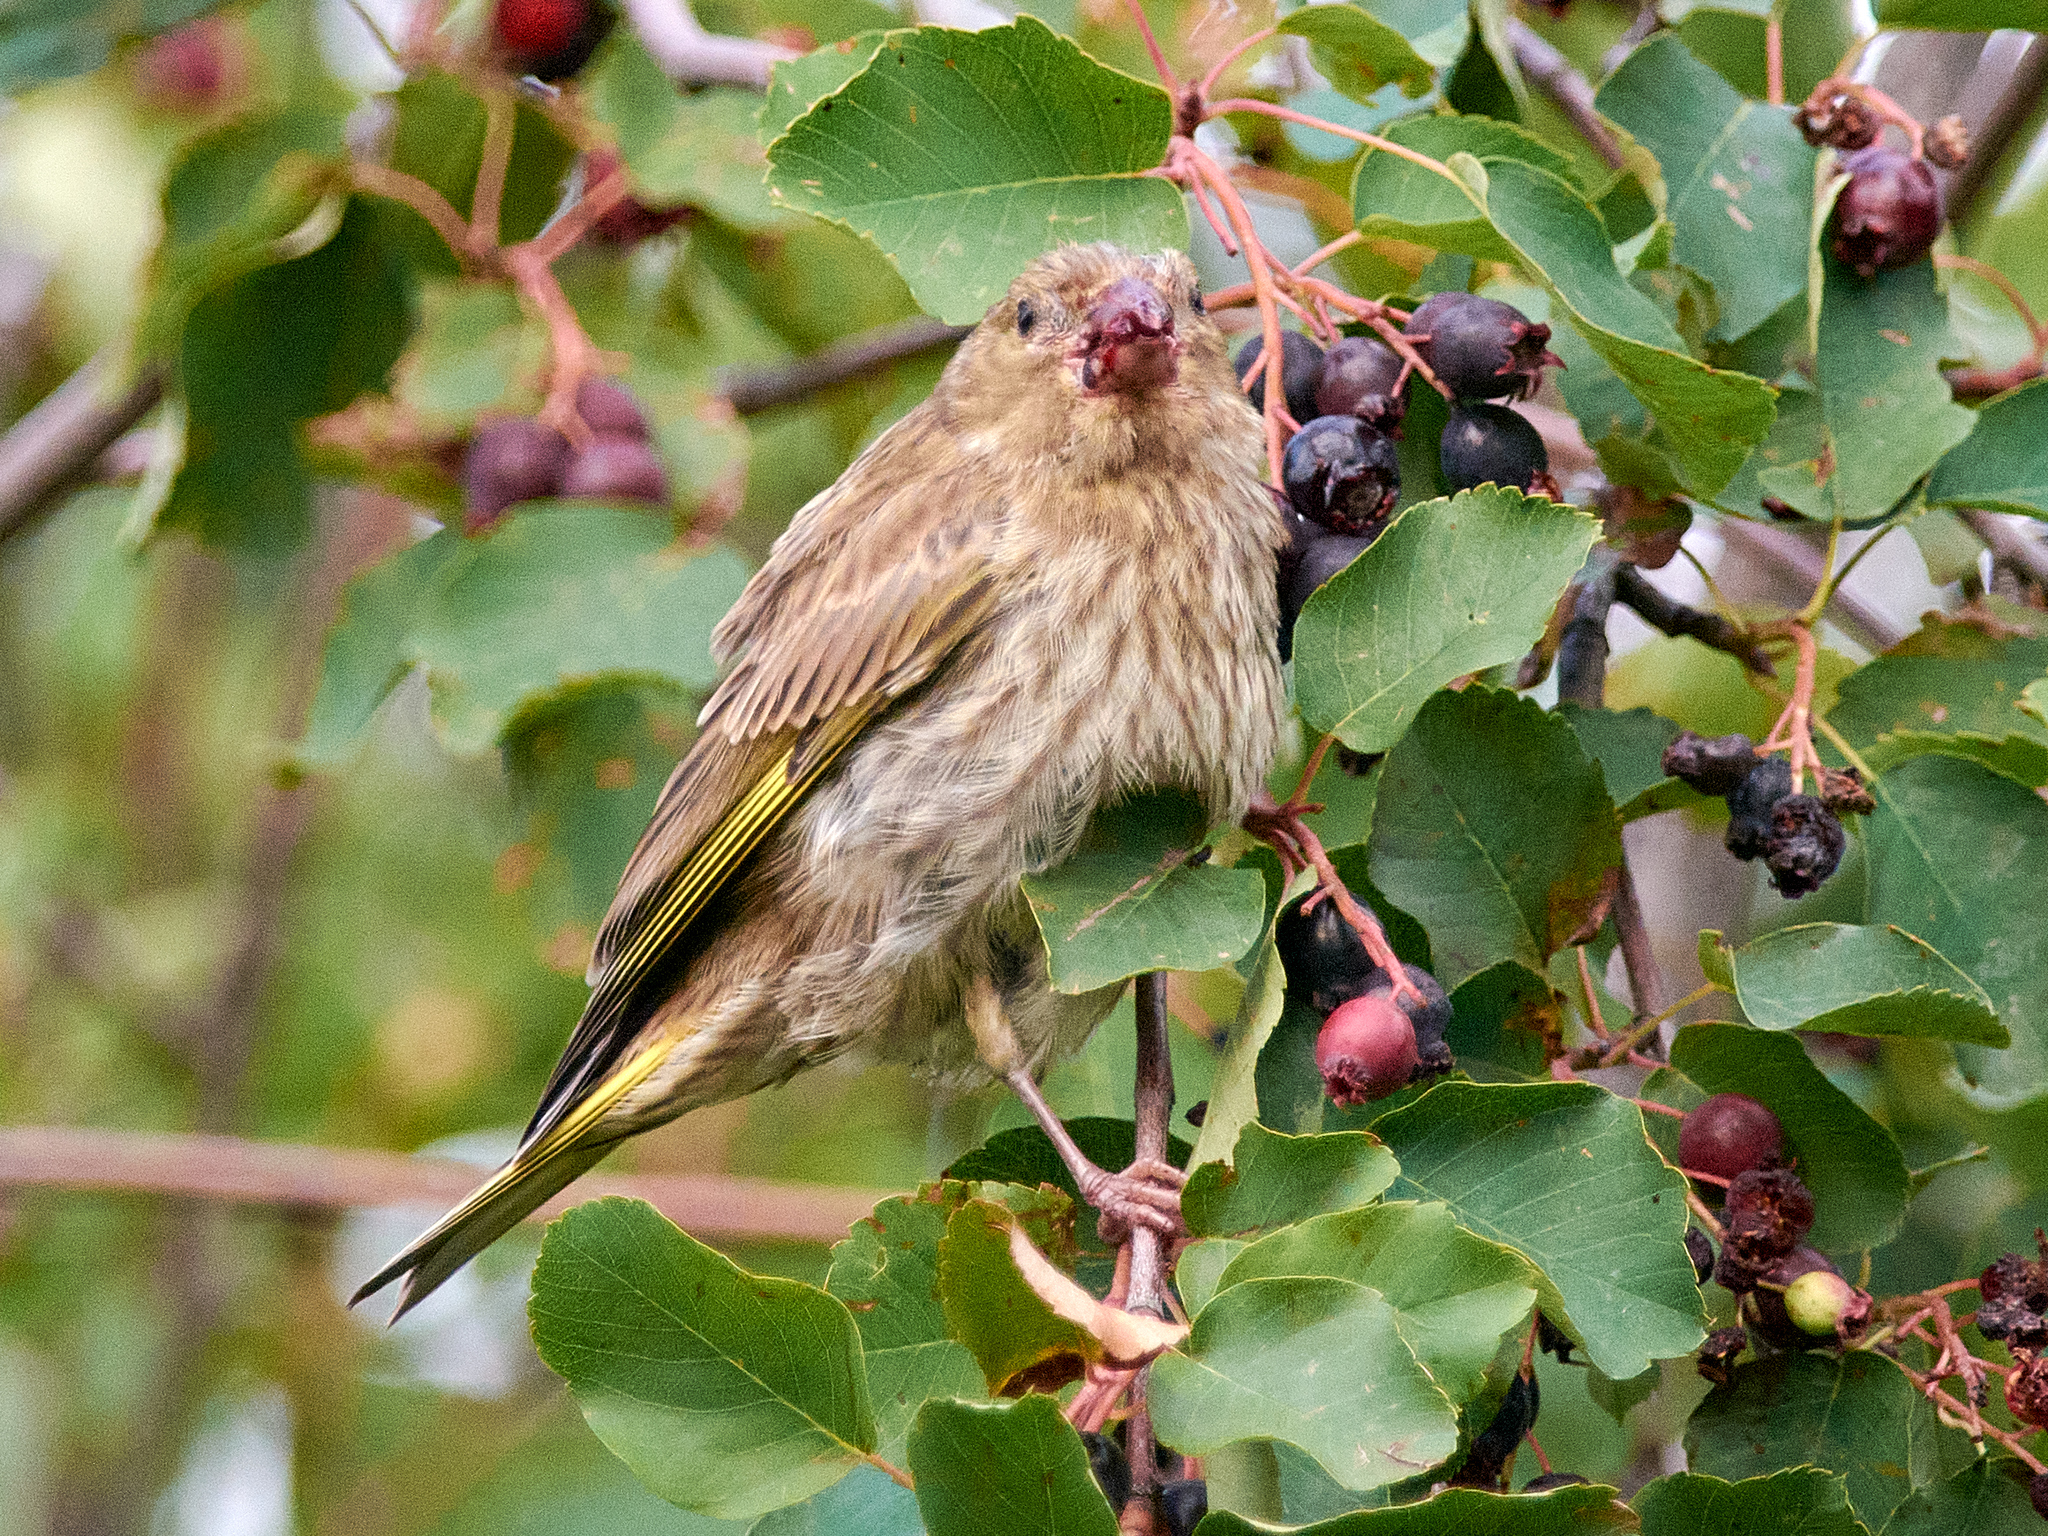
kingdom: Plantae
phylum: Tracheophyta
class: Liliopsida
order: Poales
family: Poaceae
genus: Chloris
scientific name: Chloris chloris
